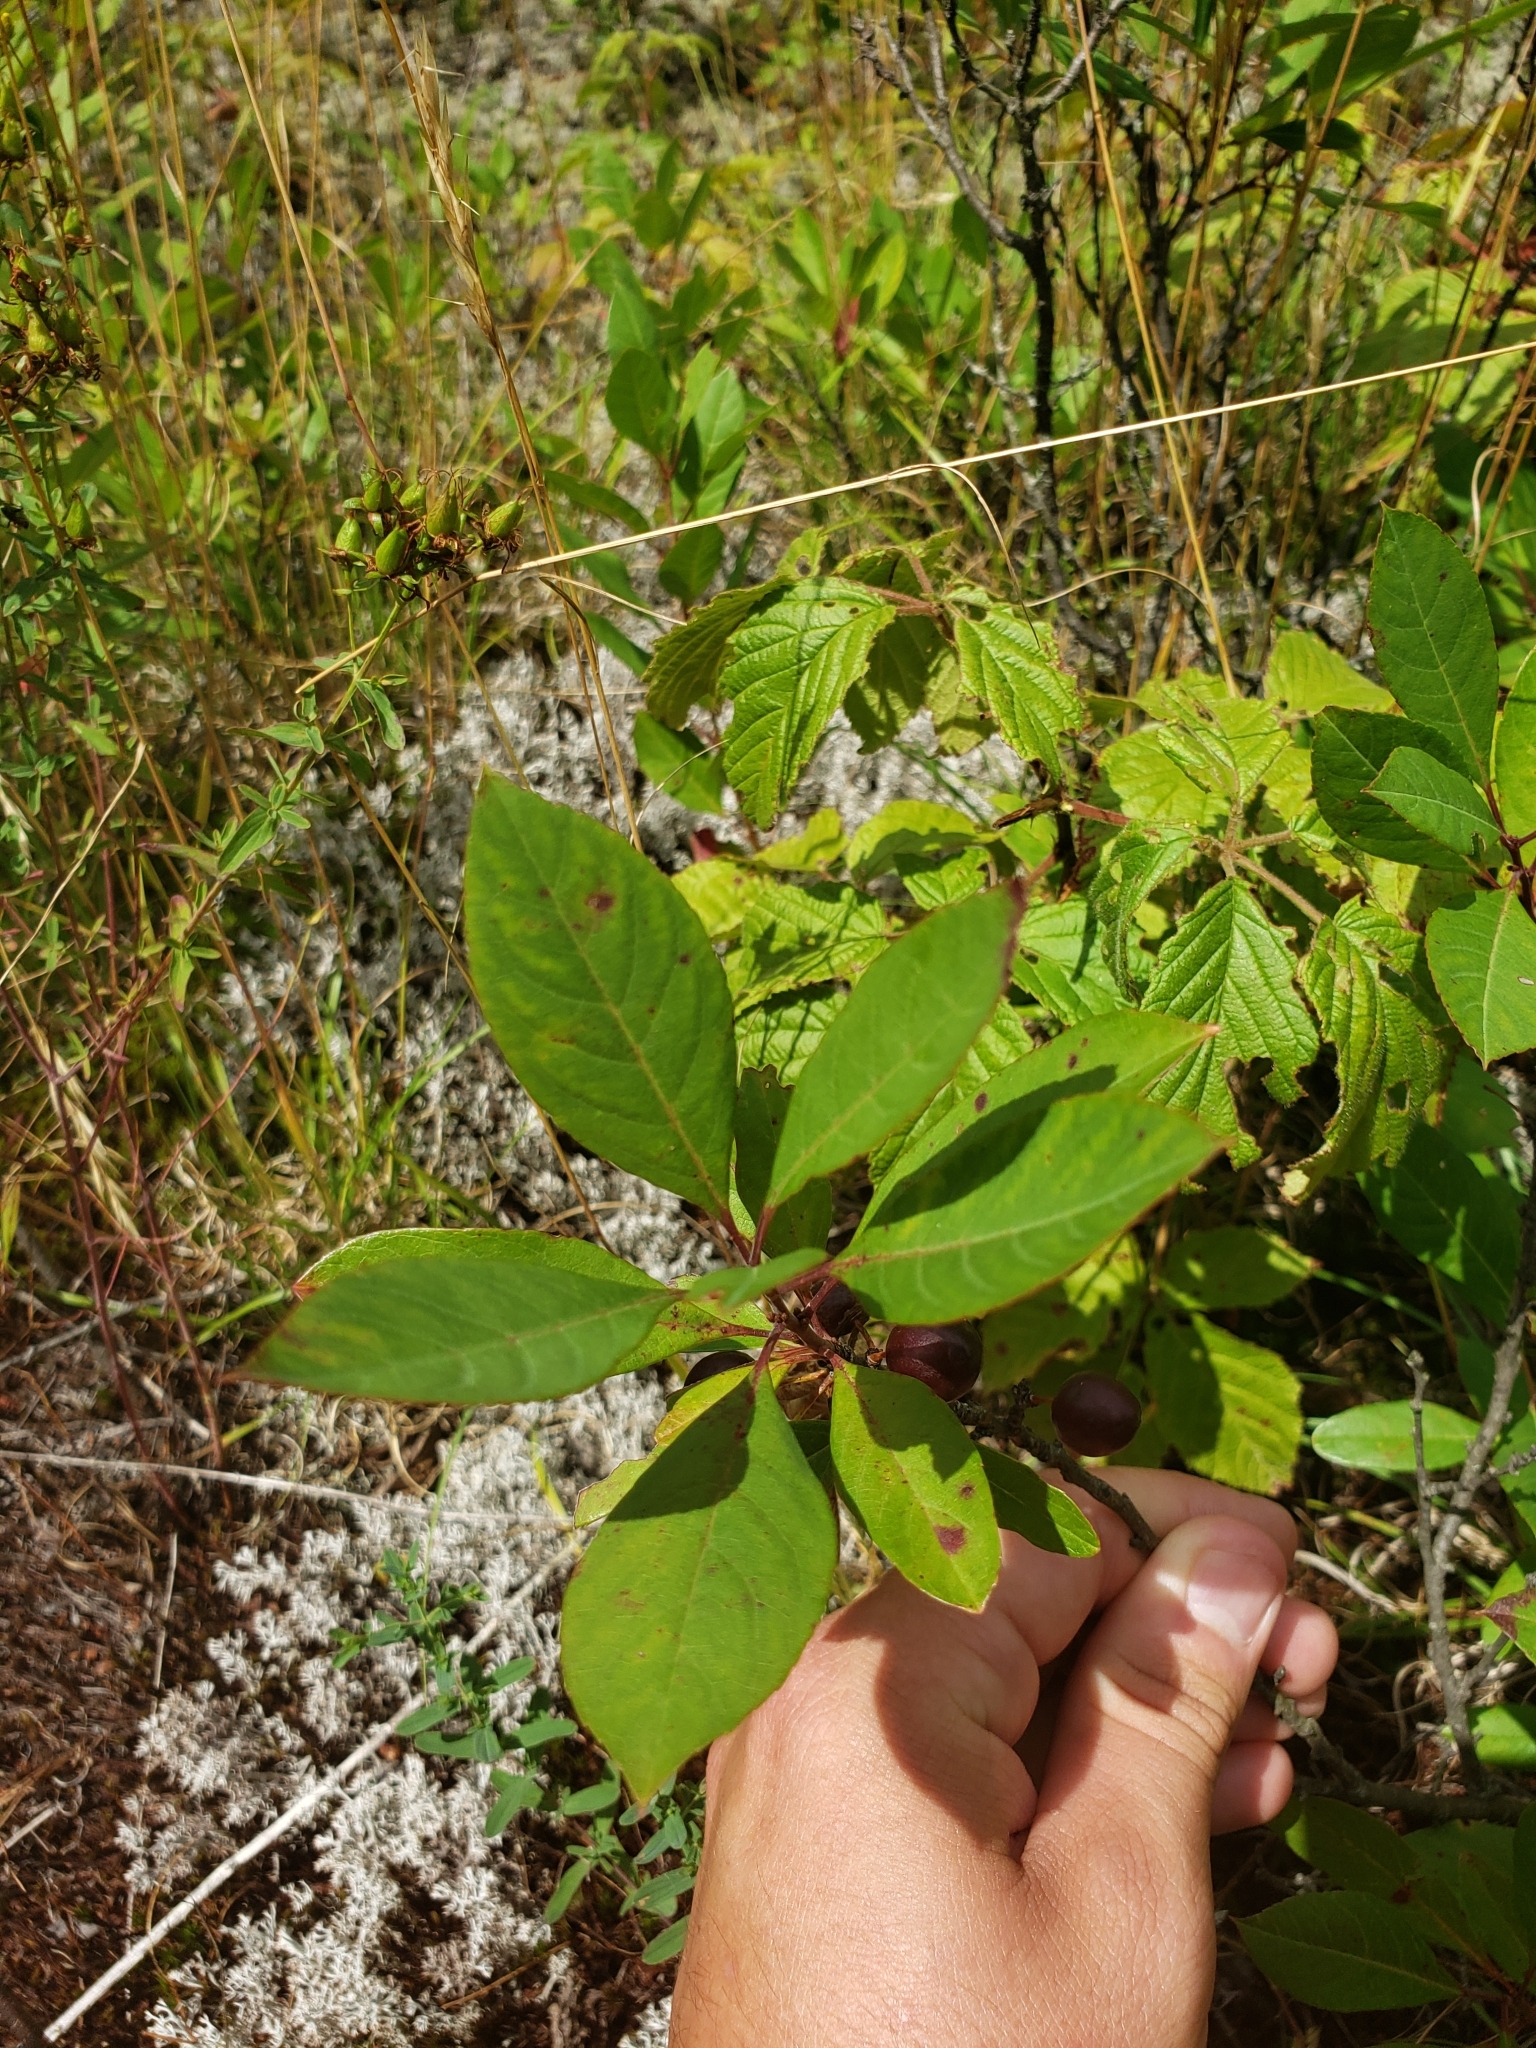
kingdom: Plantae
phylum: Tracheophyta
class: Magnoliopsida
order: Rosales
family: Rosaceae
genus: Prunus
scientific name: Prunus susquehanae
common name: Sesquehana sandcherry
